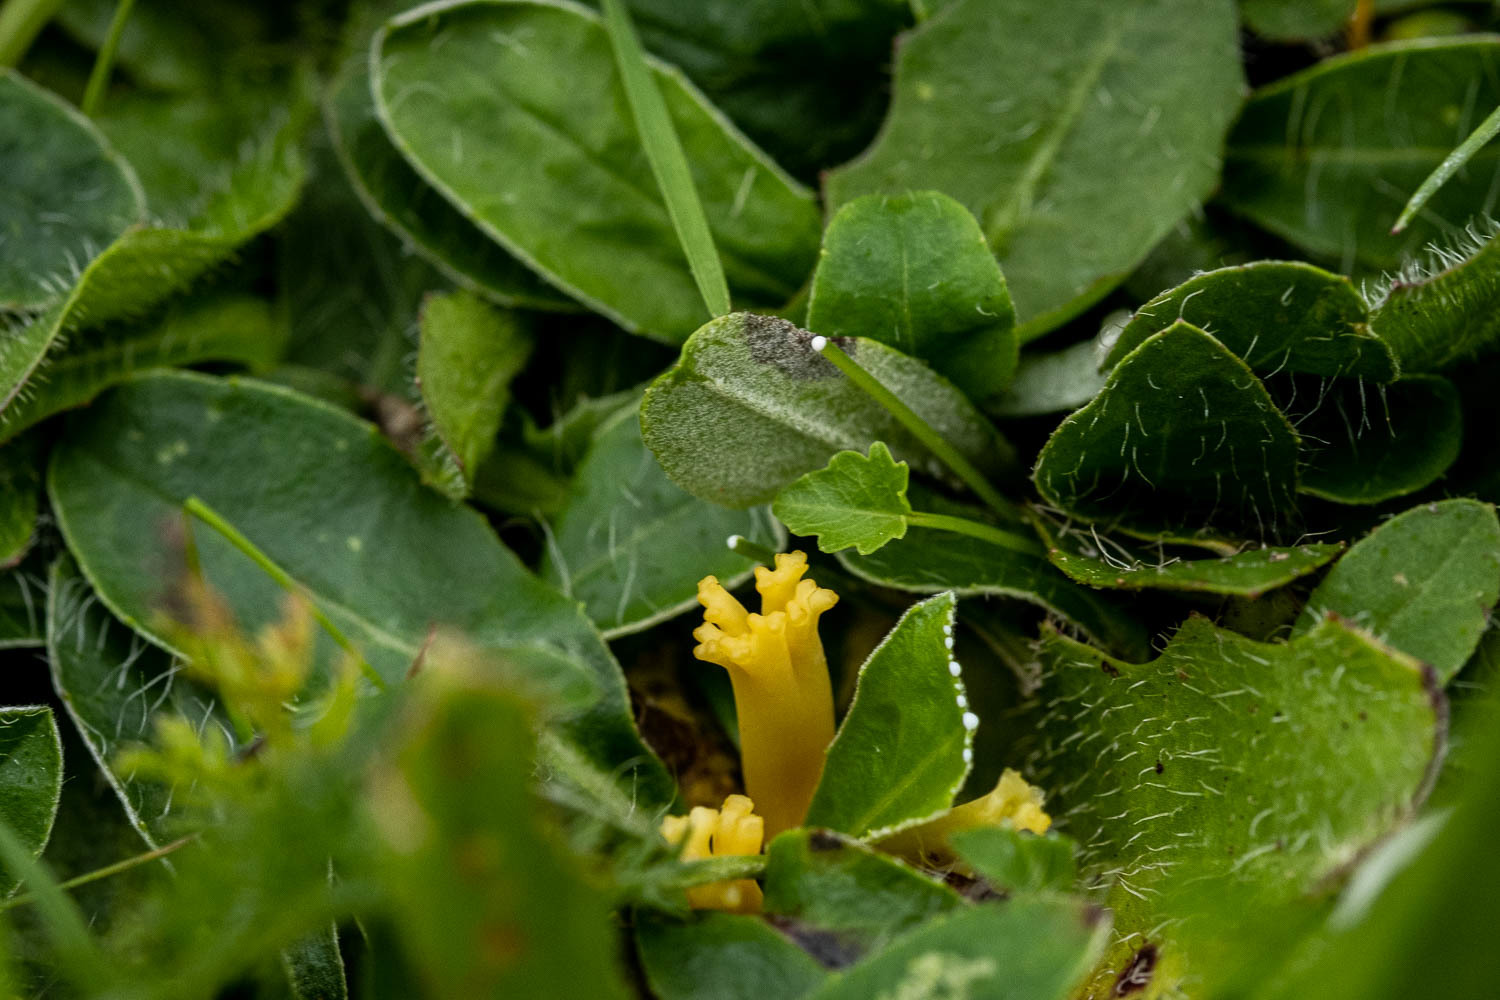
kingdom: Fungi
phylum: Basidiomycota
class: Agaricomycetes
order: Agaricales
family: Clavariaceae
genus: Clavulinopsis
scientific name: Clavulinopsis corniculata
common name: Meadow coral
